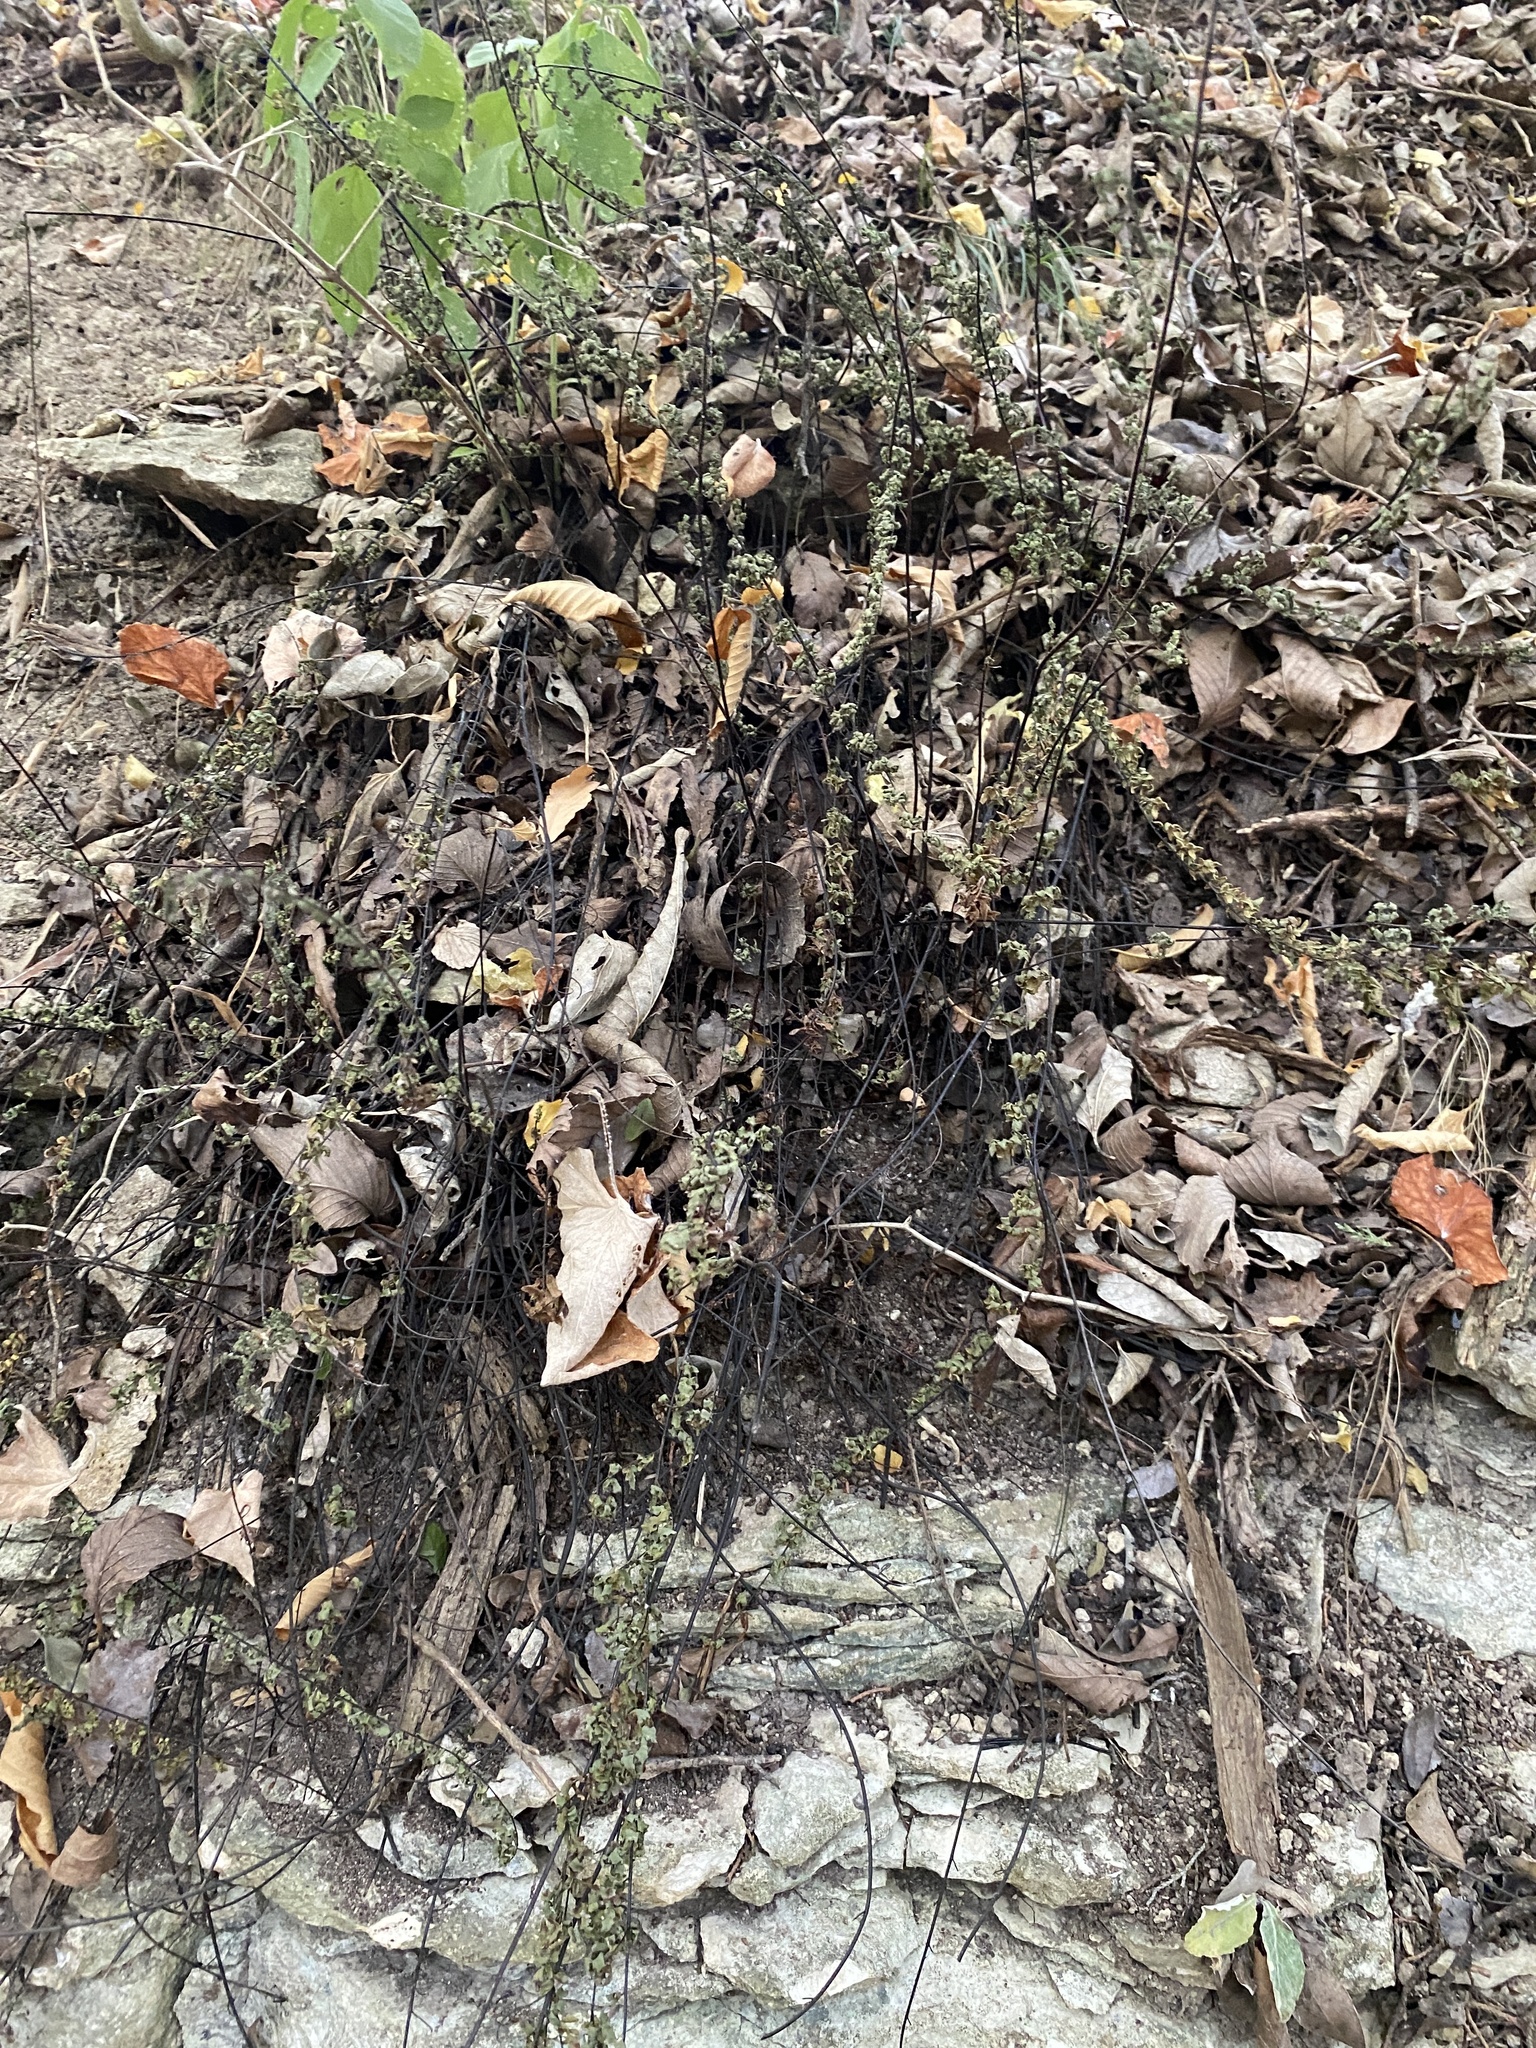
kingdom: Plantae
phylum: Tracheophyta
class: Polypodiopsida
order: Polypodiales
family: Pteridaceae
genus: Myriopteris
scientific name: Myriopteris alabamensis
